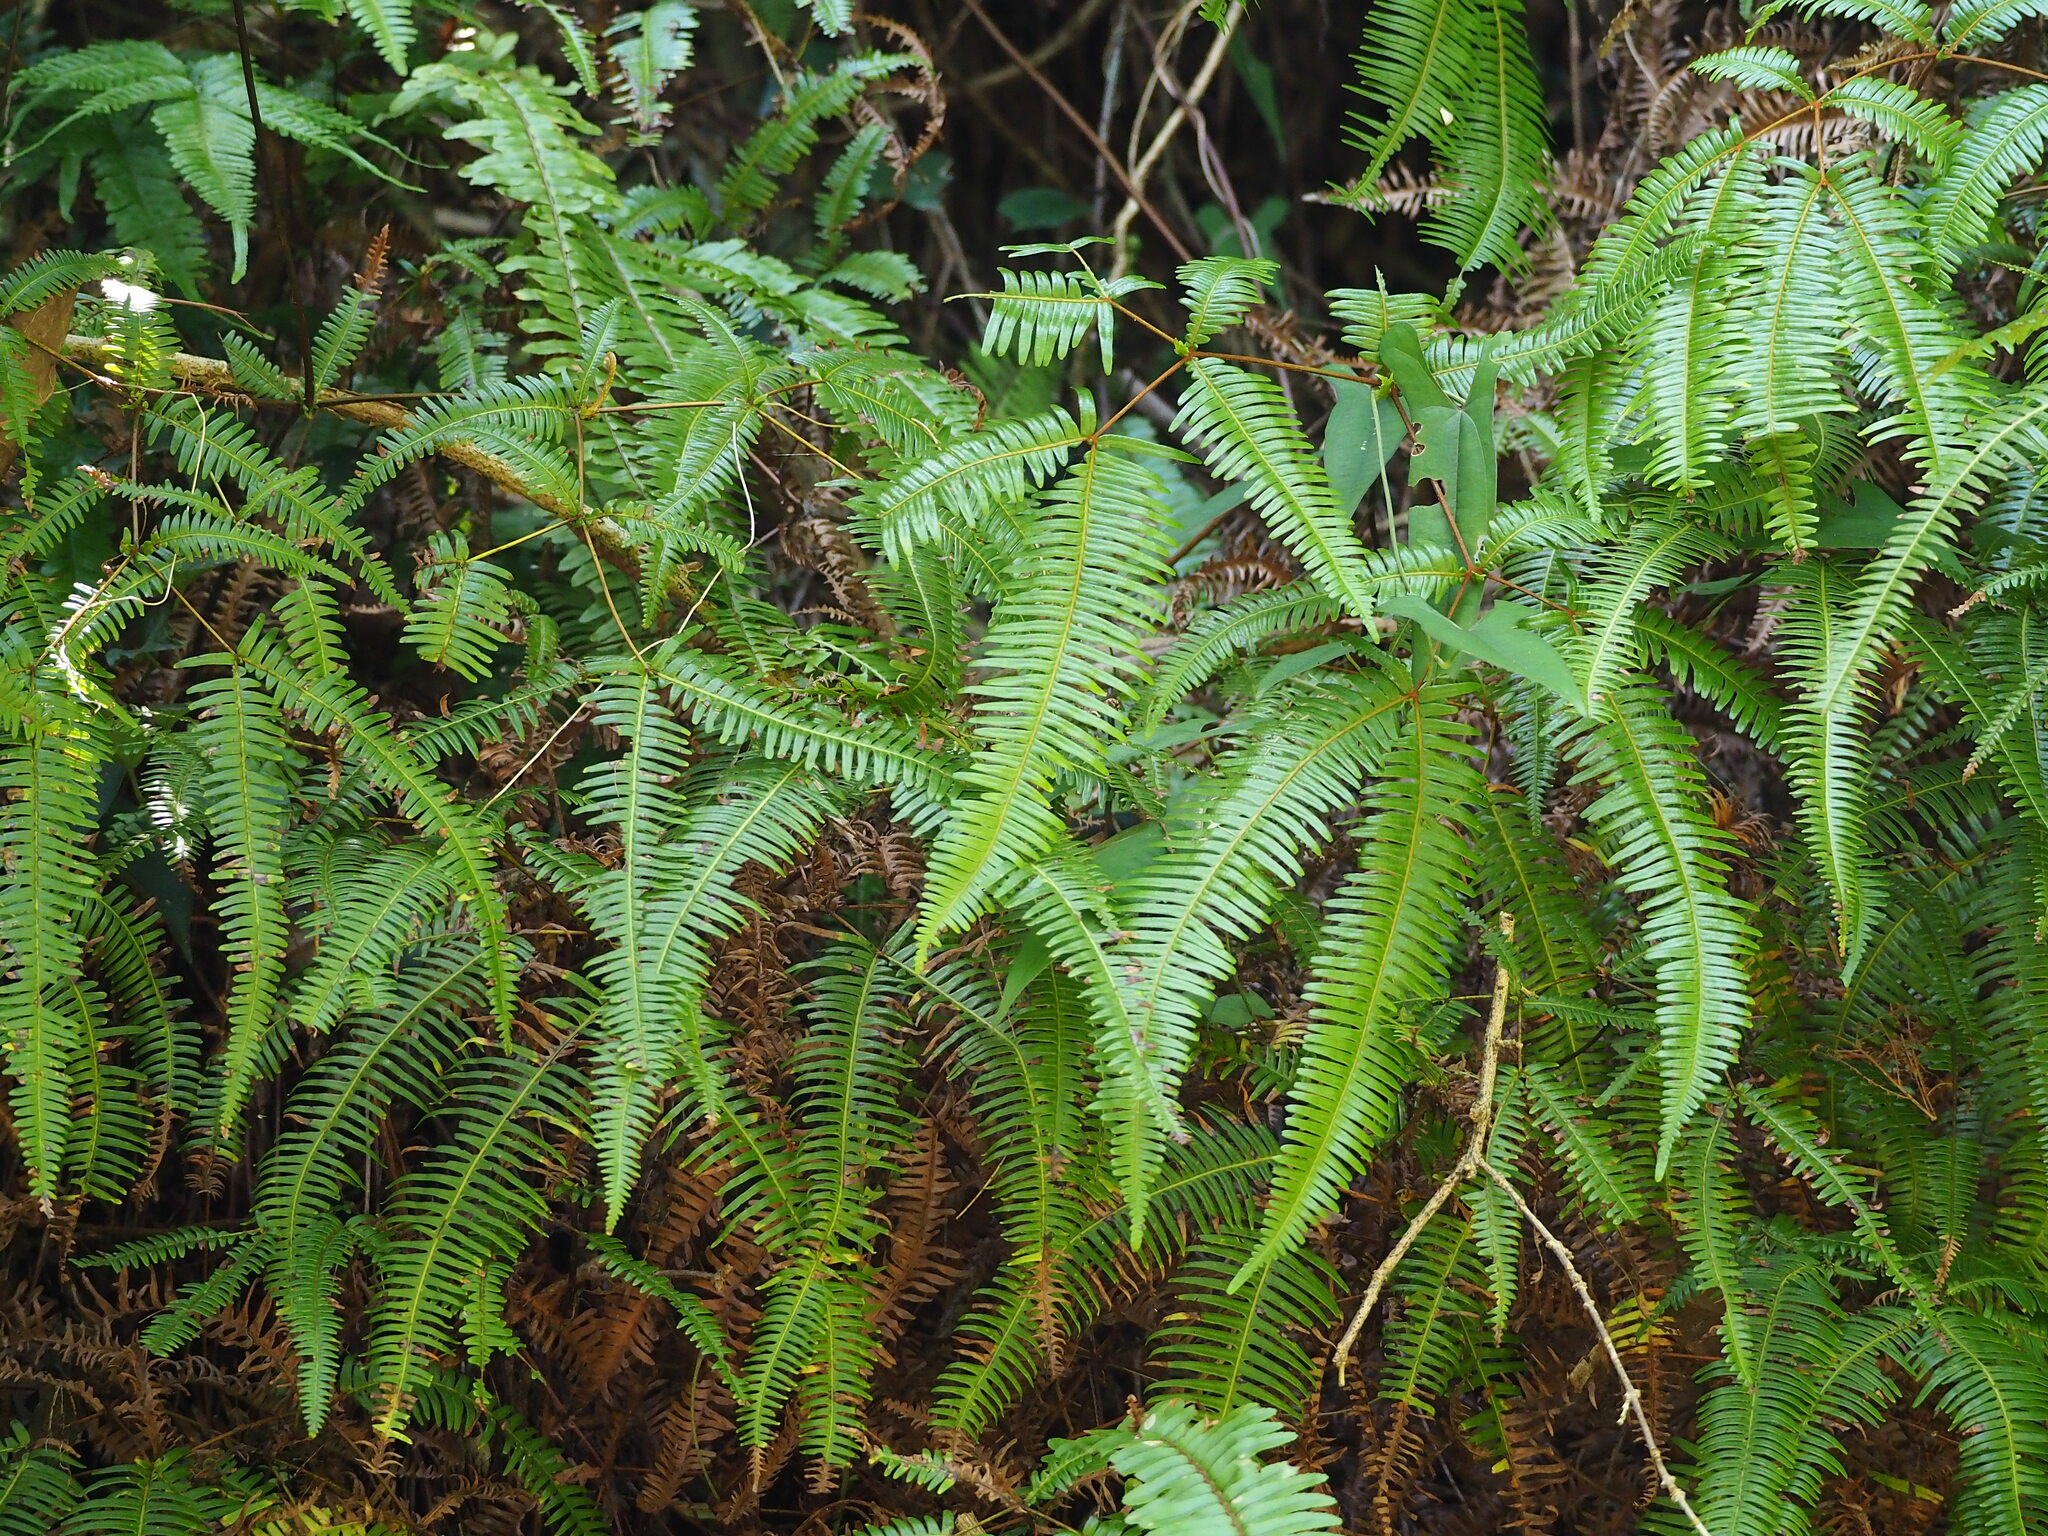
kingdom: Plantae
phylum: Tracheophyta
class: Polypodiopsida
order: Gleicheniales
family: Gleicheniaceae
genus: Dicranopteris
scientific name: Dicranopteris linearis
